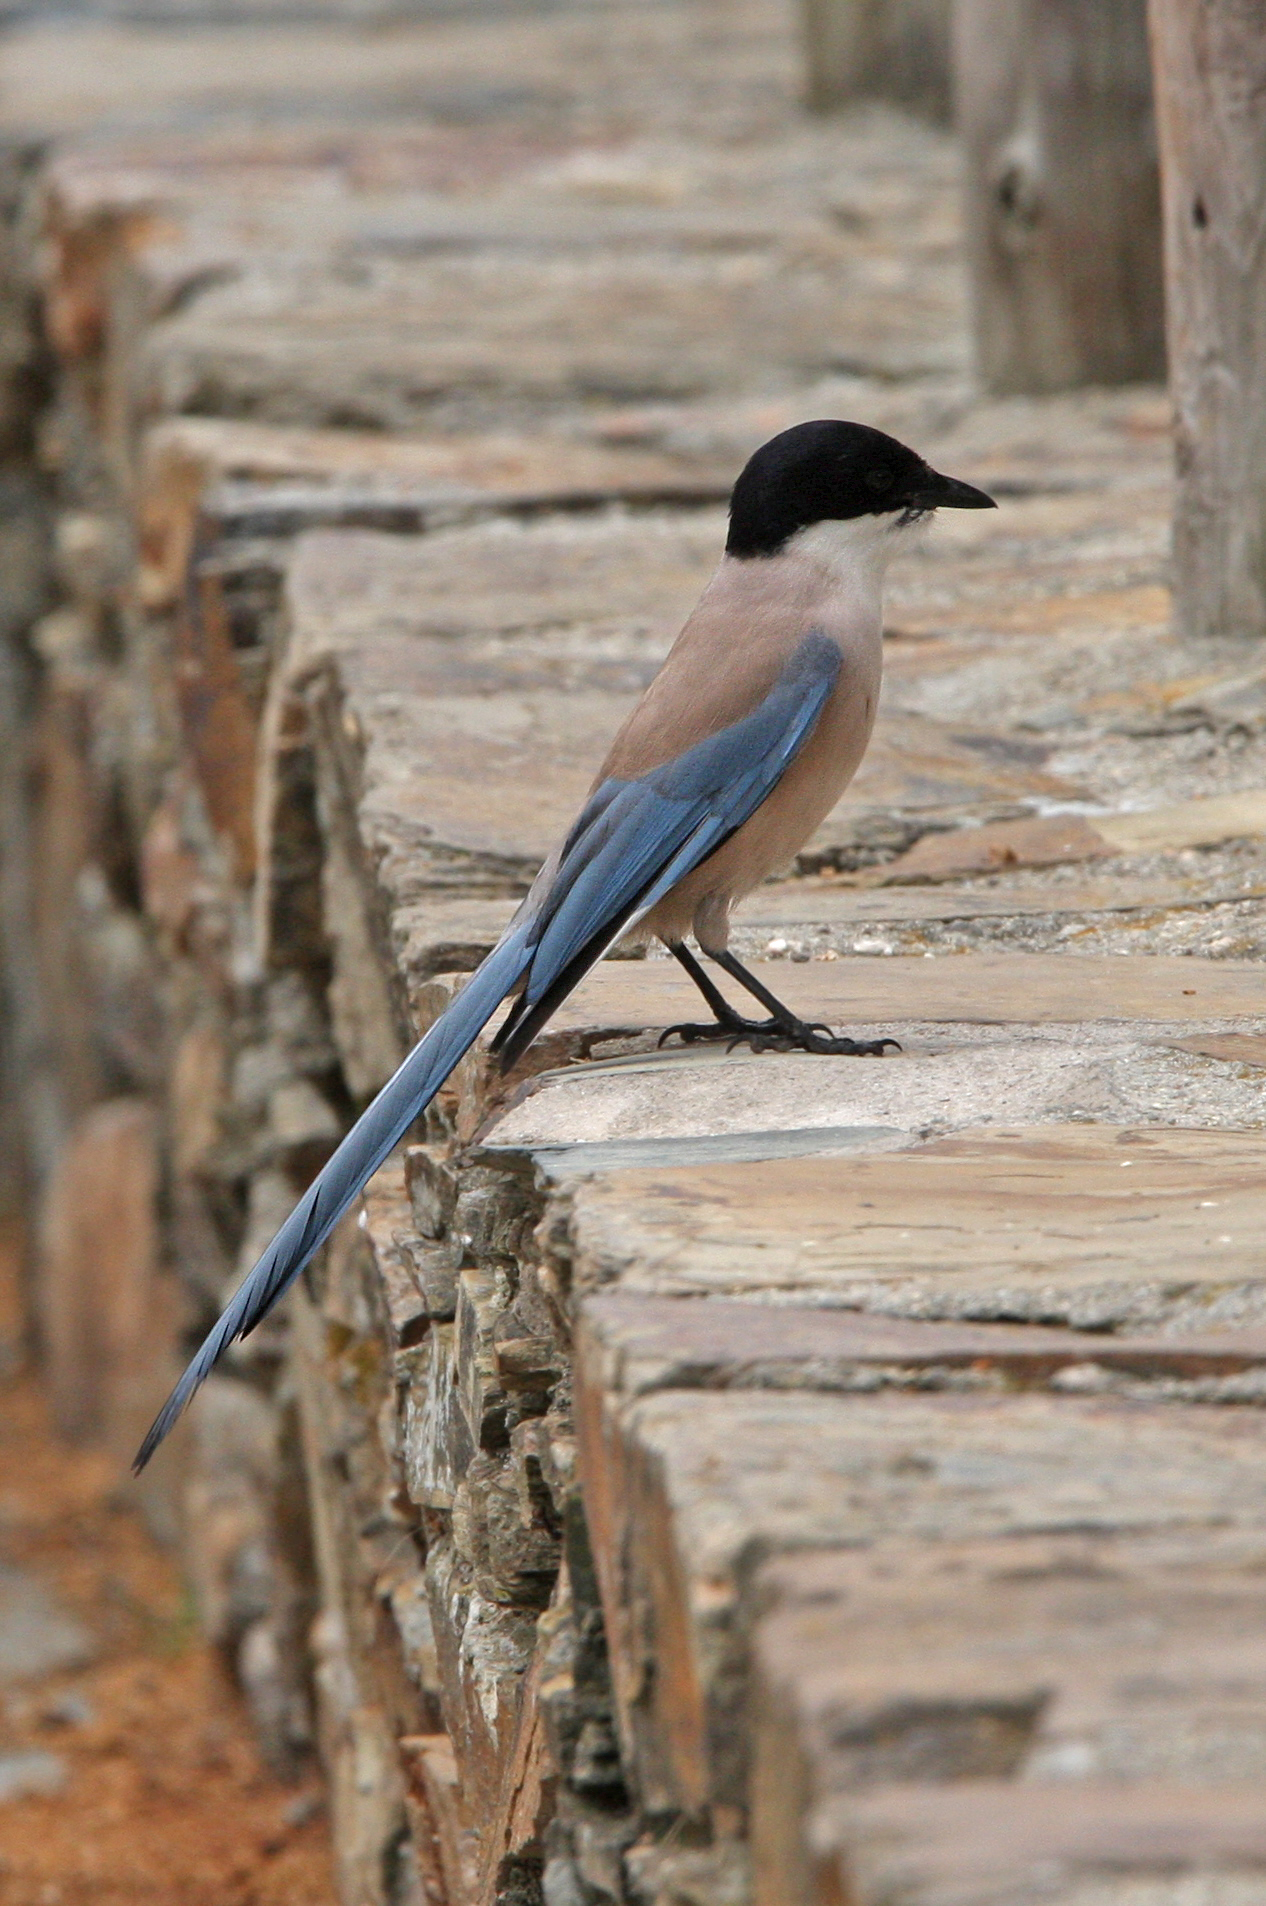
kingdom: Animalia
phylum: Chordata
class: Aves
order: Passeriformes
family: Corvidae
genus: Cyanopica
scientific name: Cyanopica cooki
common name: Iberian magpie
